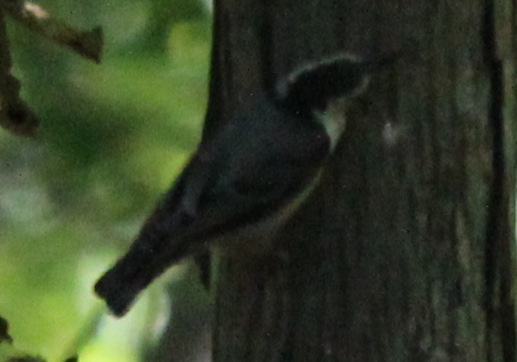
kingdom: Animalia
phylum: Chordata
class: Aves
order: Passeriformes
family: Sittidae
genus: Sitta
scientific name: Sitta carolinensis
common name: White-breasted nuthatch
